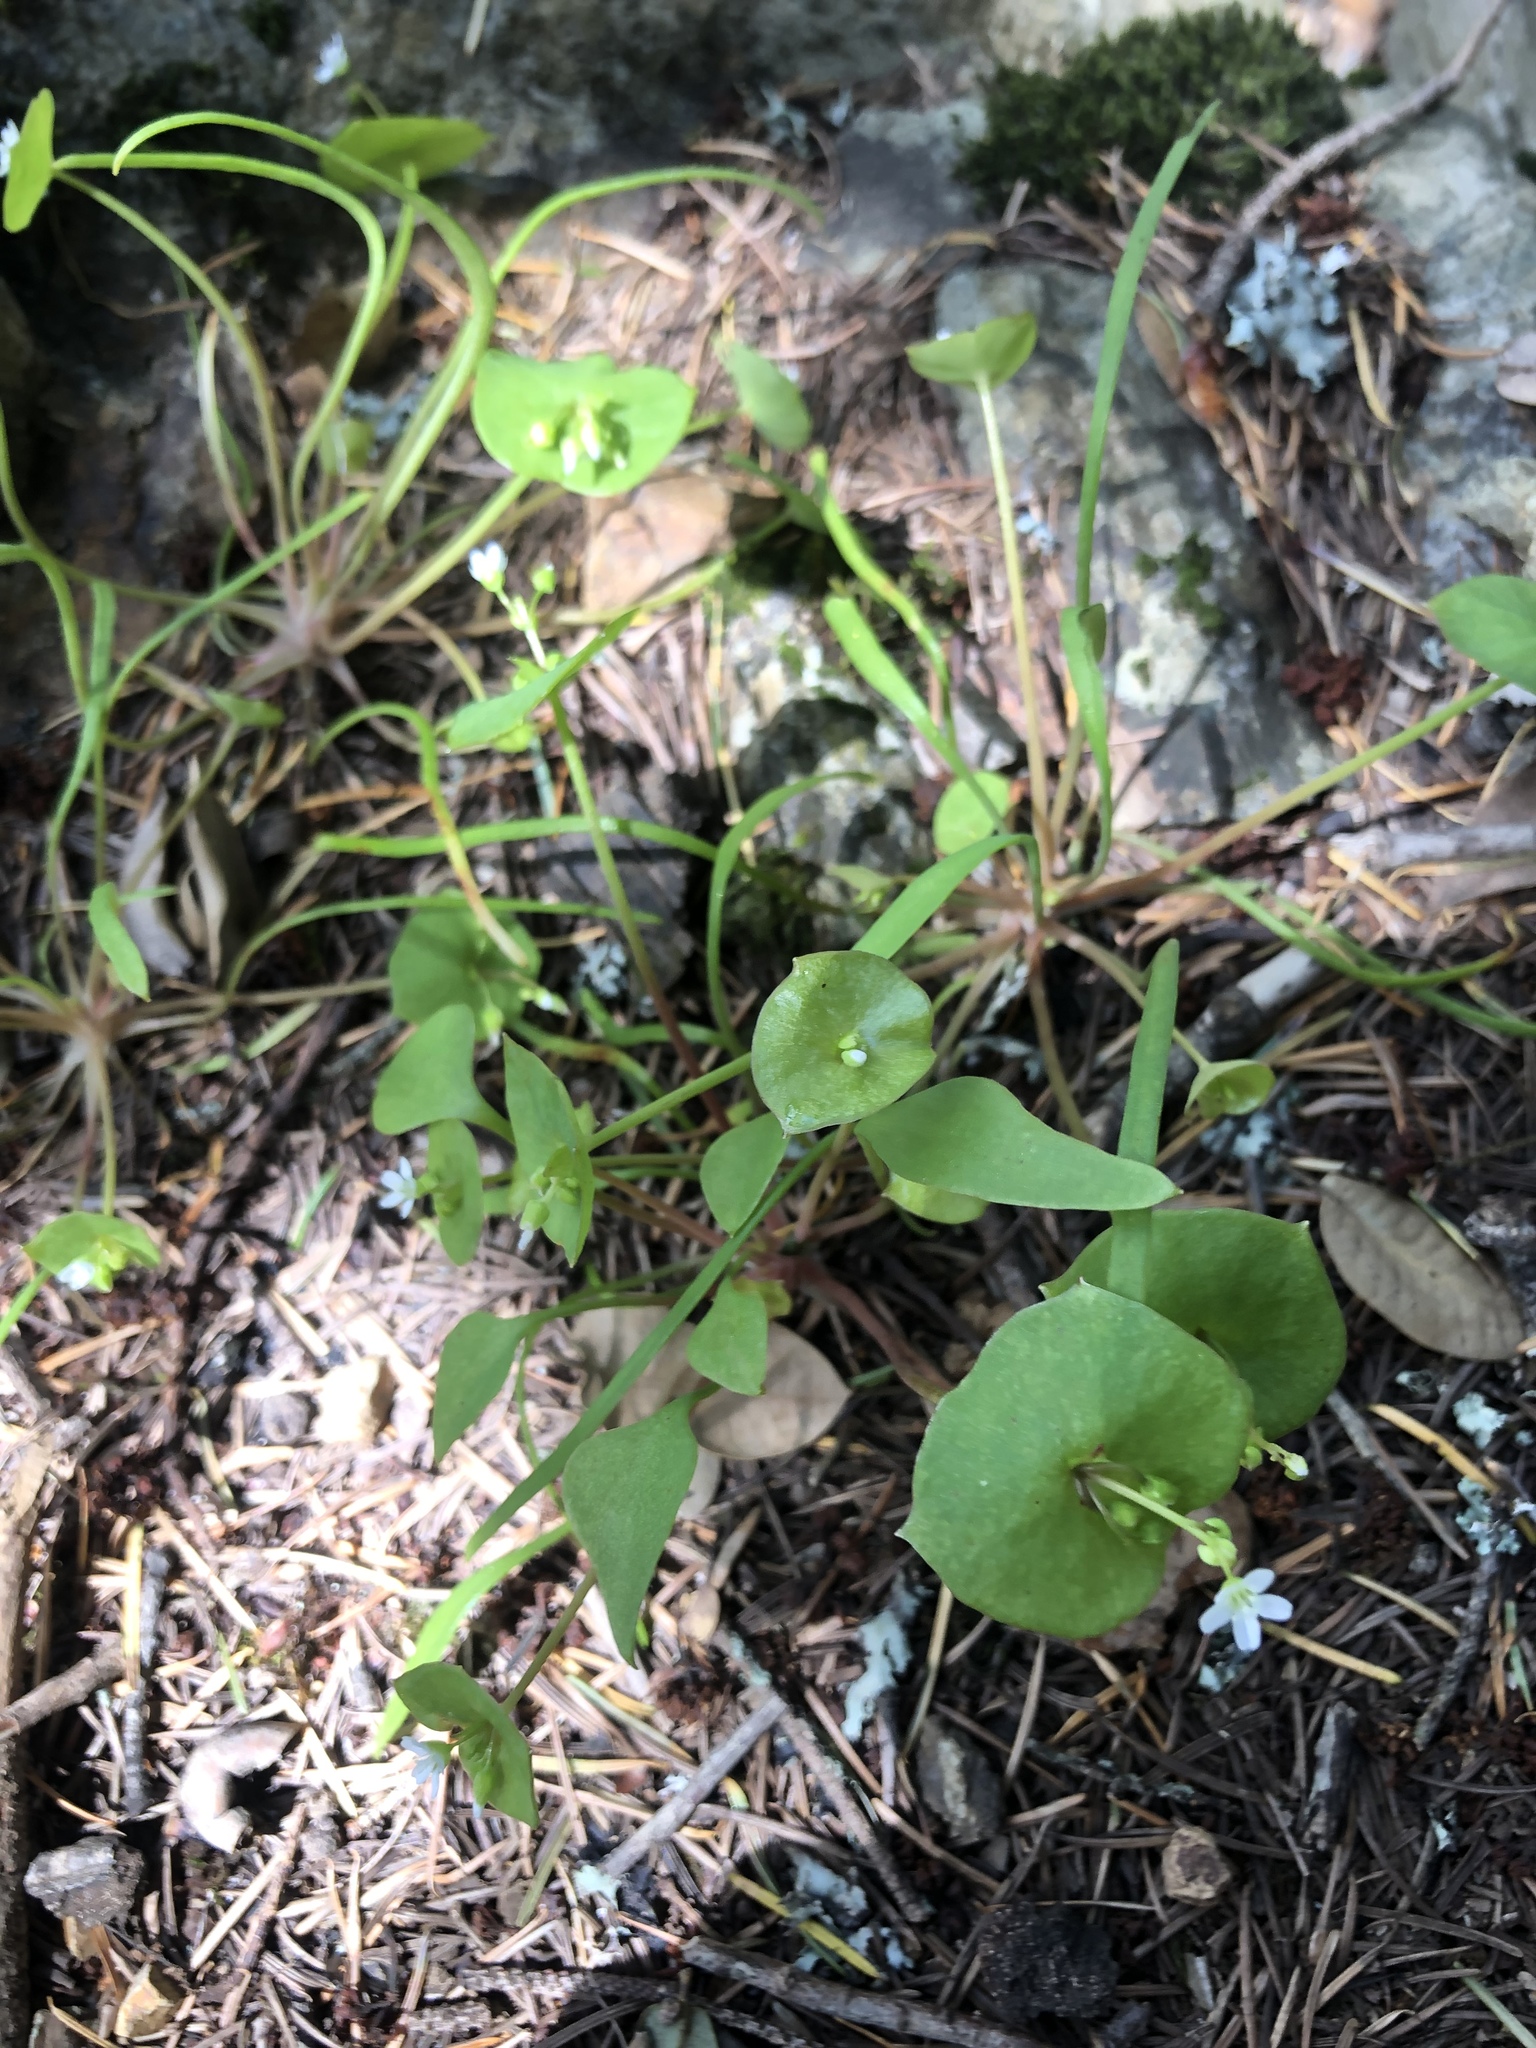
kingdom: Plantae
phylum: Tracheophyta
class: Magnoliopsida
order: Caryophyllales
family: Montiaceae
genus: Claytonia
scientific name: Claytonia perfoliata
